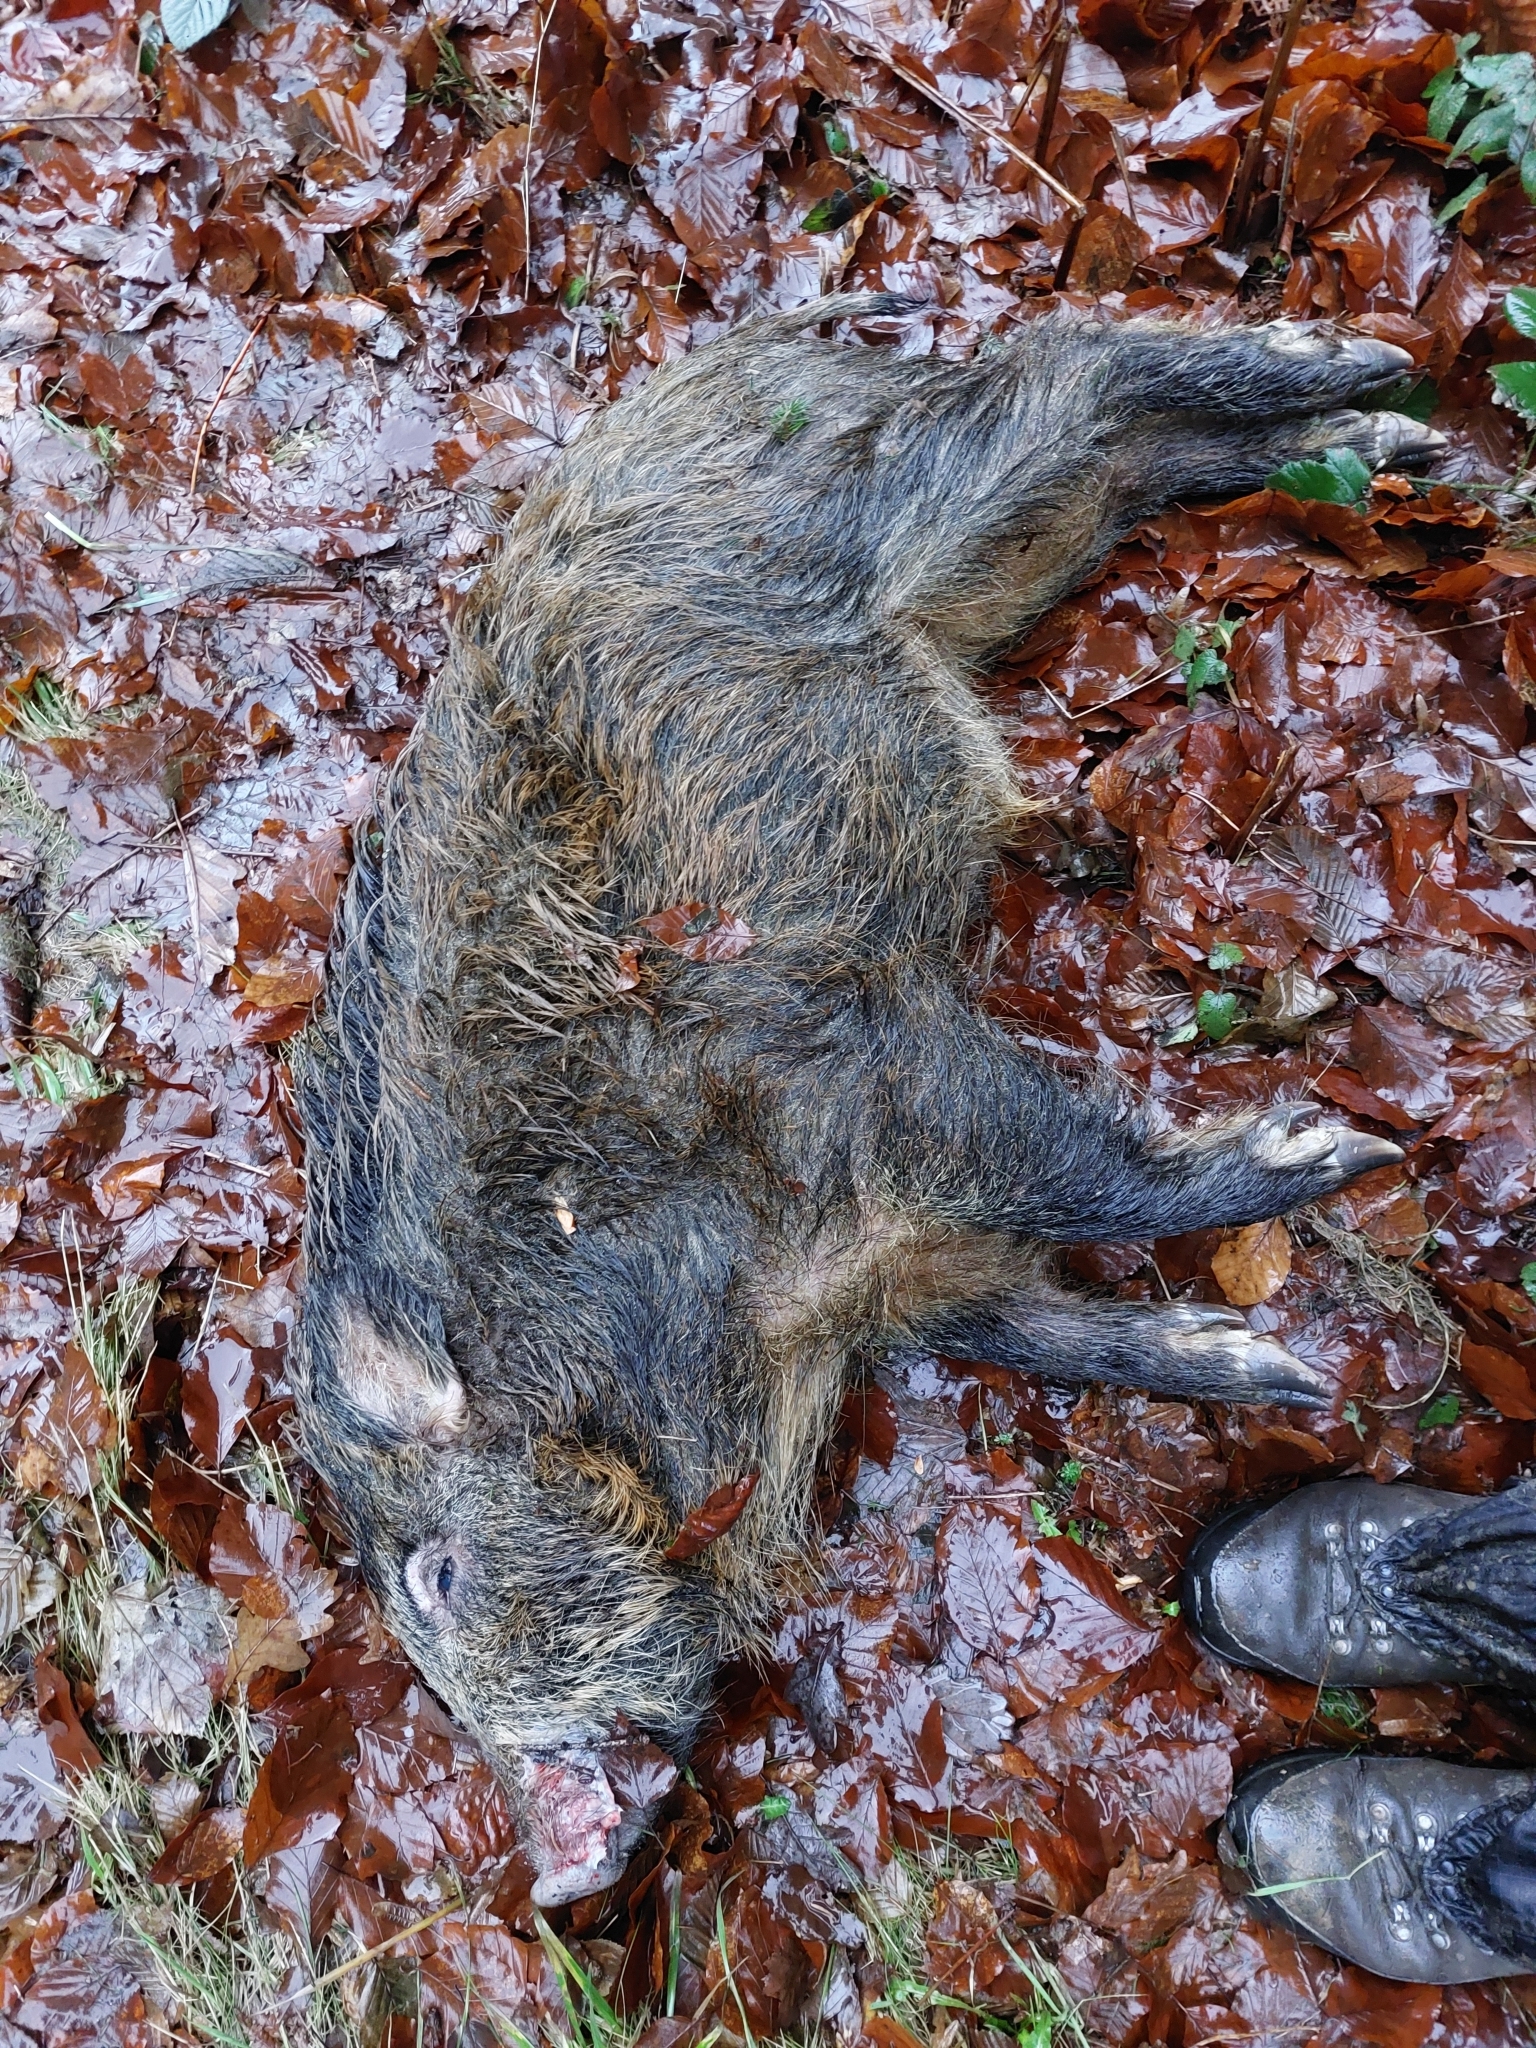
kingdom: Animalia
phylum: Chordata
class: Mammalia
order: Artiodactyla
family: Suidae
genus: Sus
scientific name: Sus scrofa
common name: Wild boar
